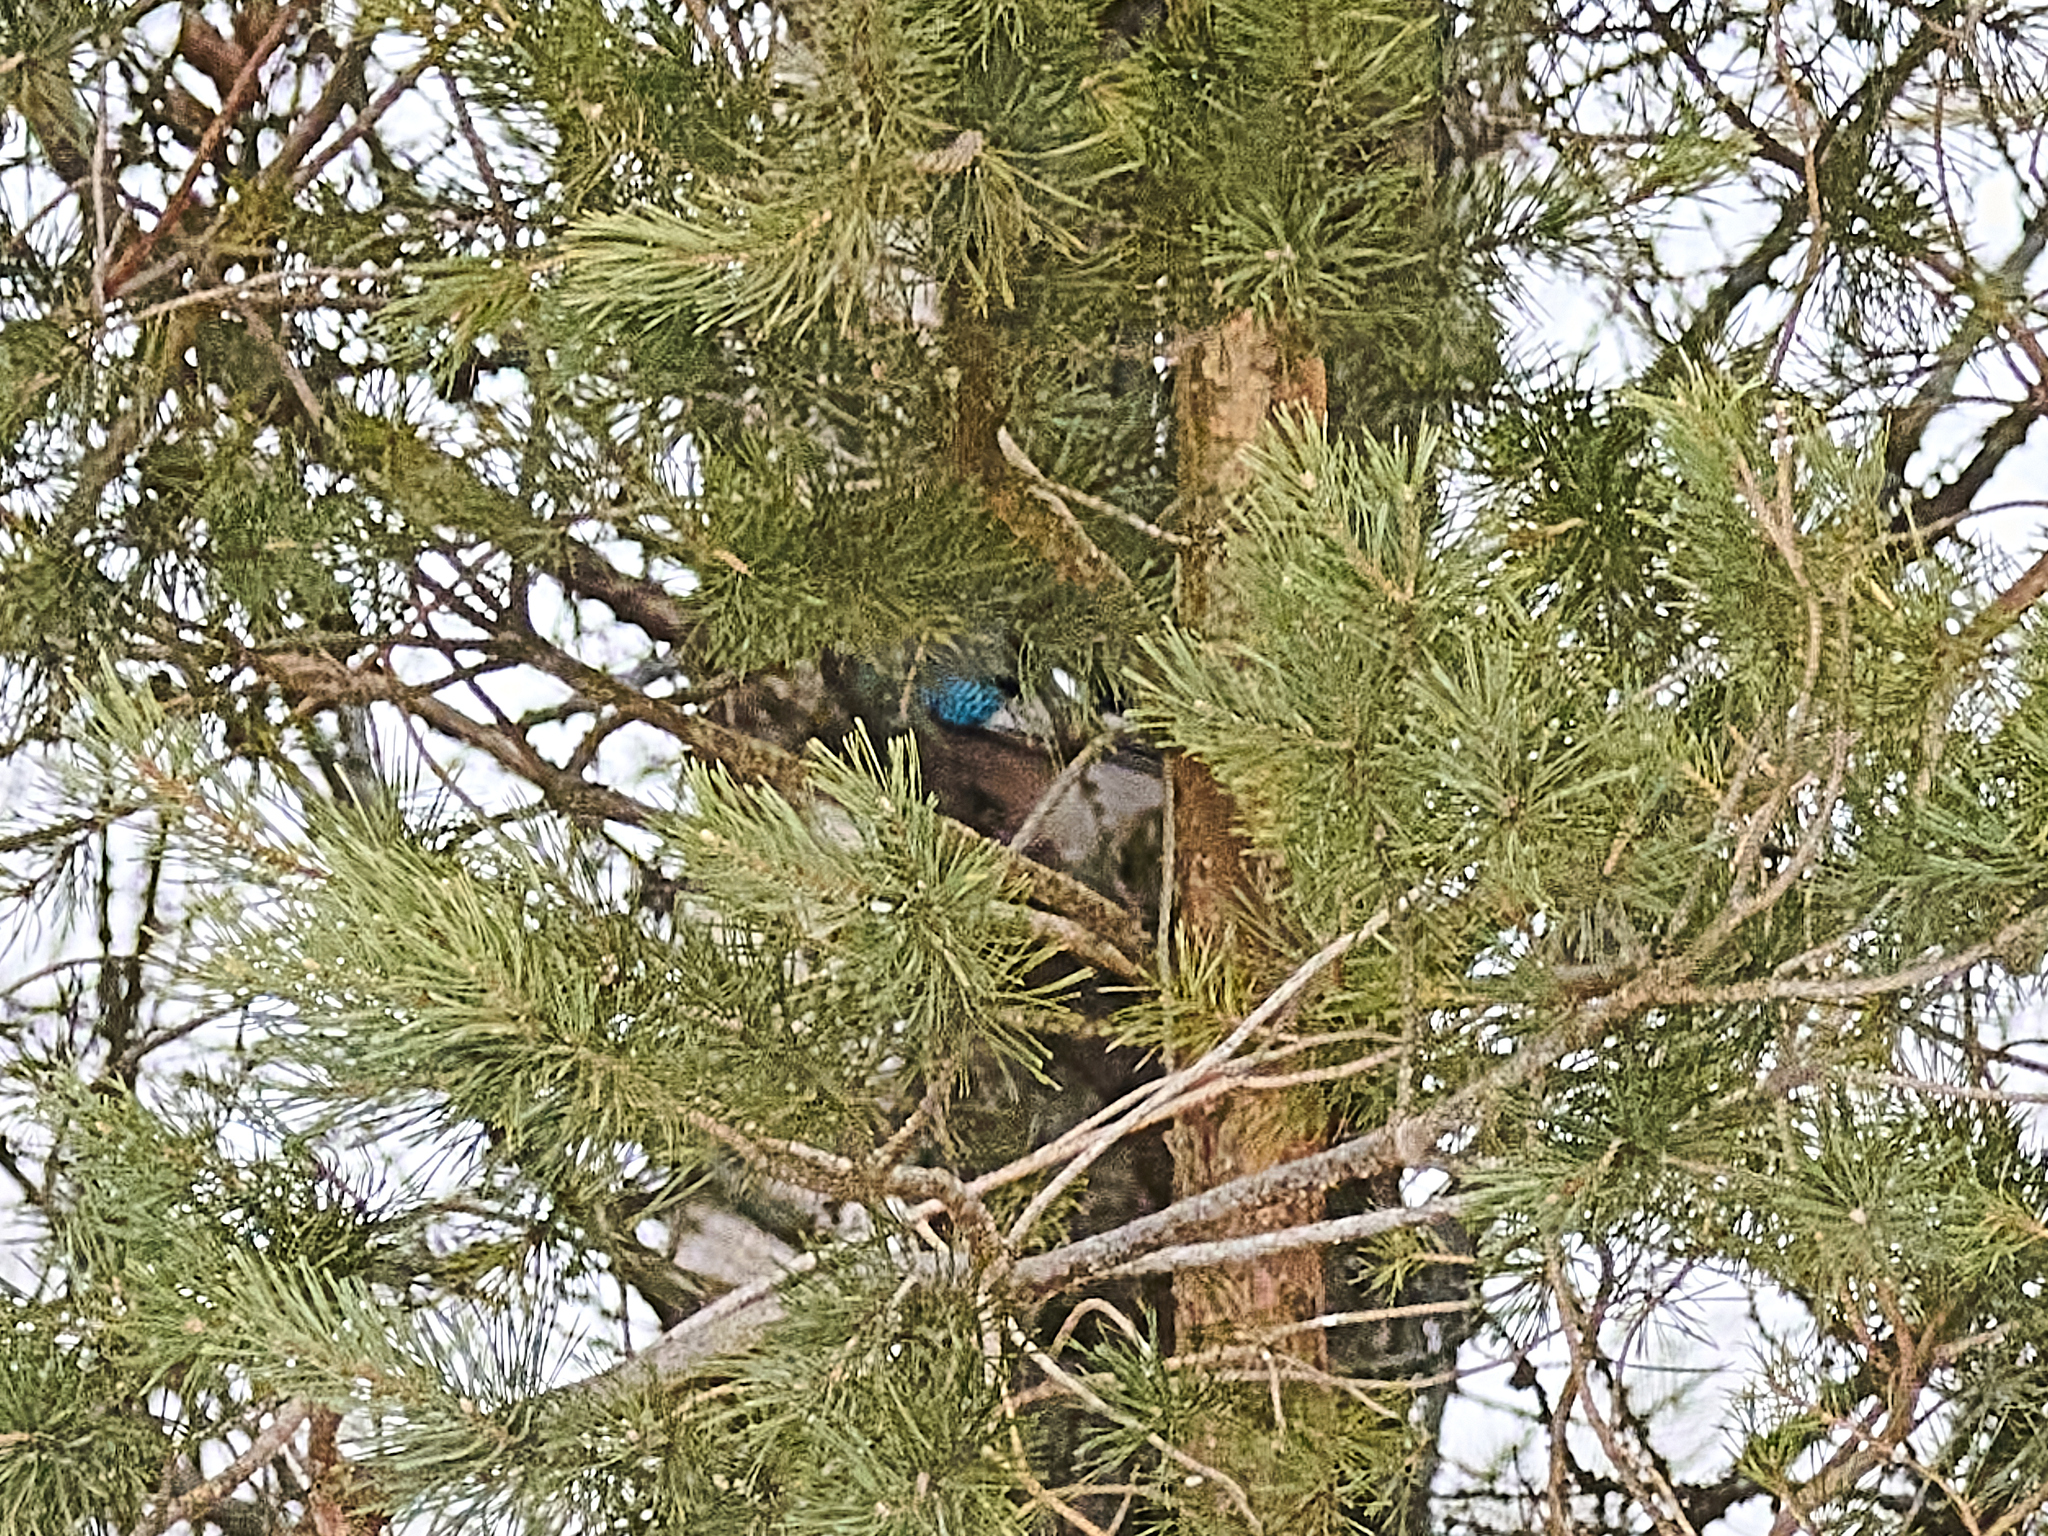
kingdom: Animalia
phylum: Chordata
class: Aves
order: Passeriformes
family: Corvidae
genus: Garrulus
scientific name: Garrulus glandarius
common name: Eurasian jay
